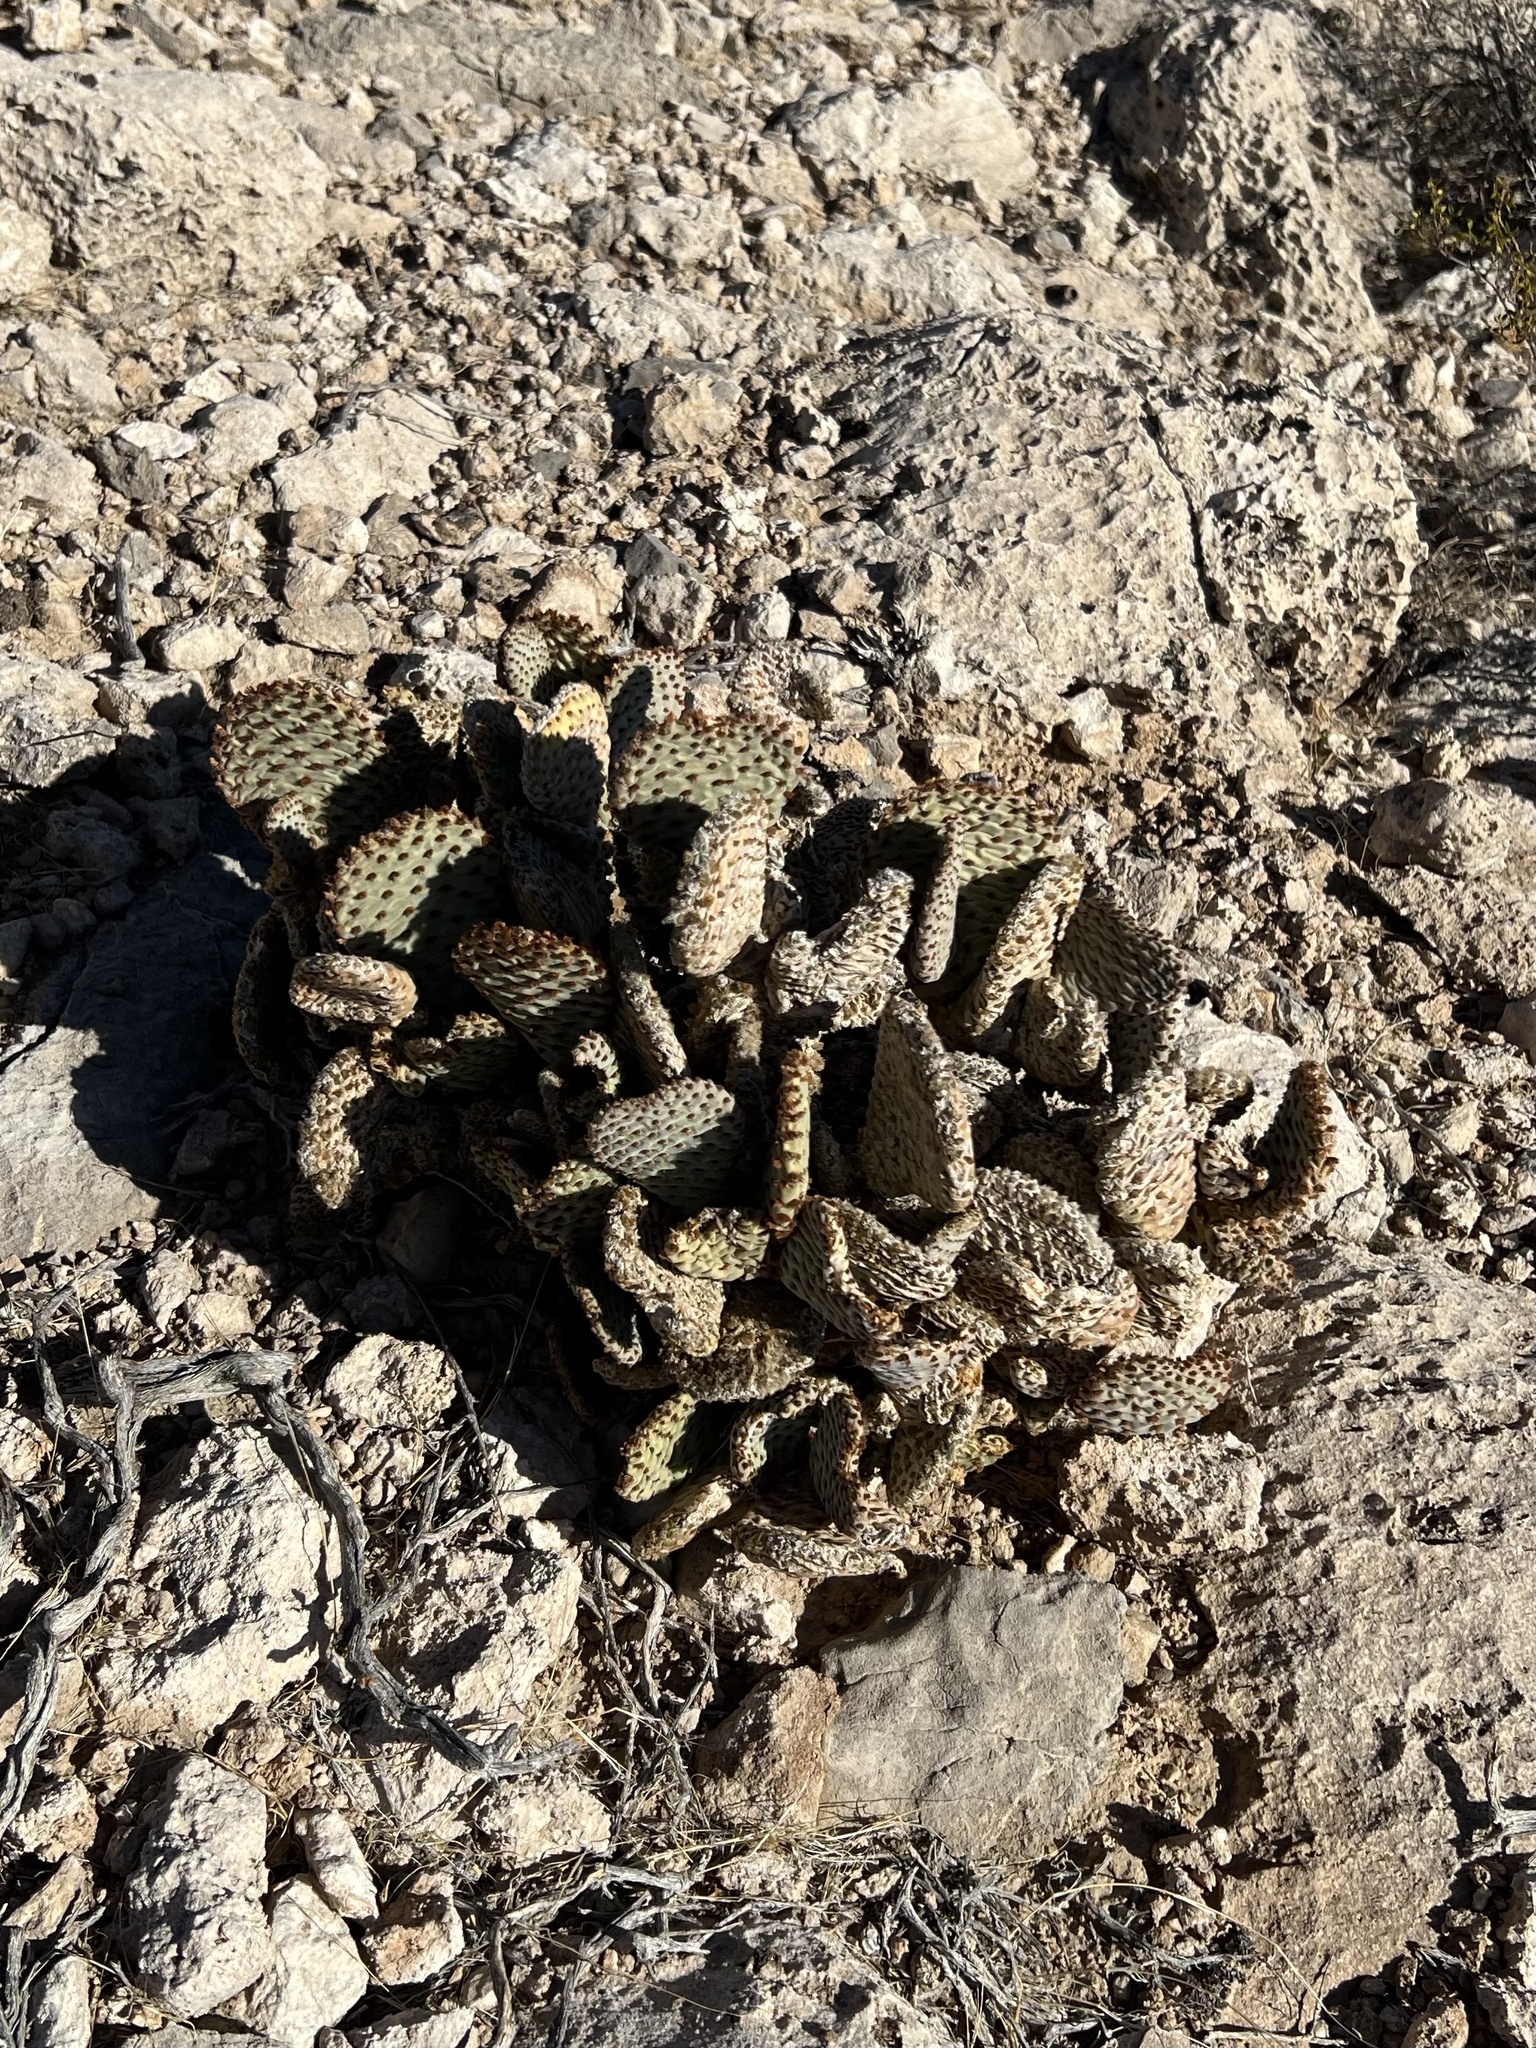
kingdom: Plantae
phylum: Tracheophyta
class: Magnoliopsida
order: Caryophyllales
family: Cactaceae
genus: Opuntia
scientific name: Opuntia basilaris
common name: Beavertail prickly-pear
